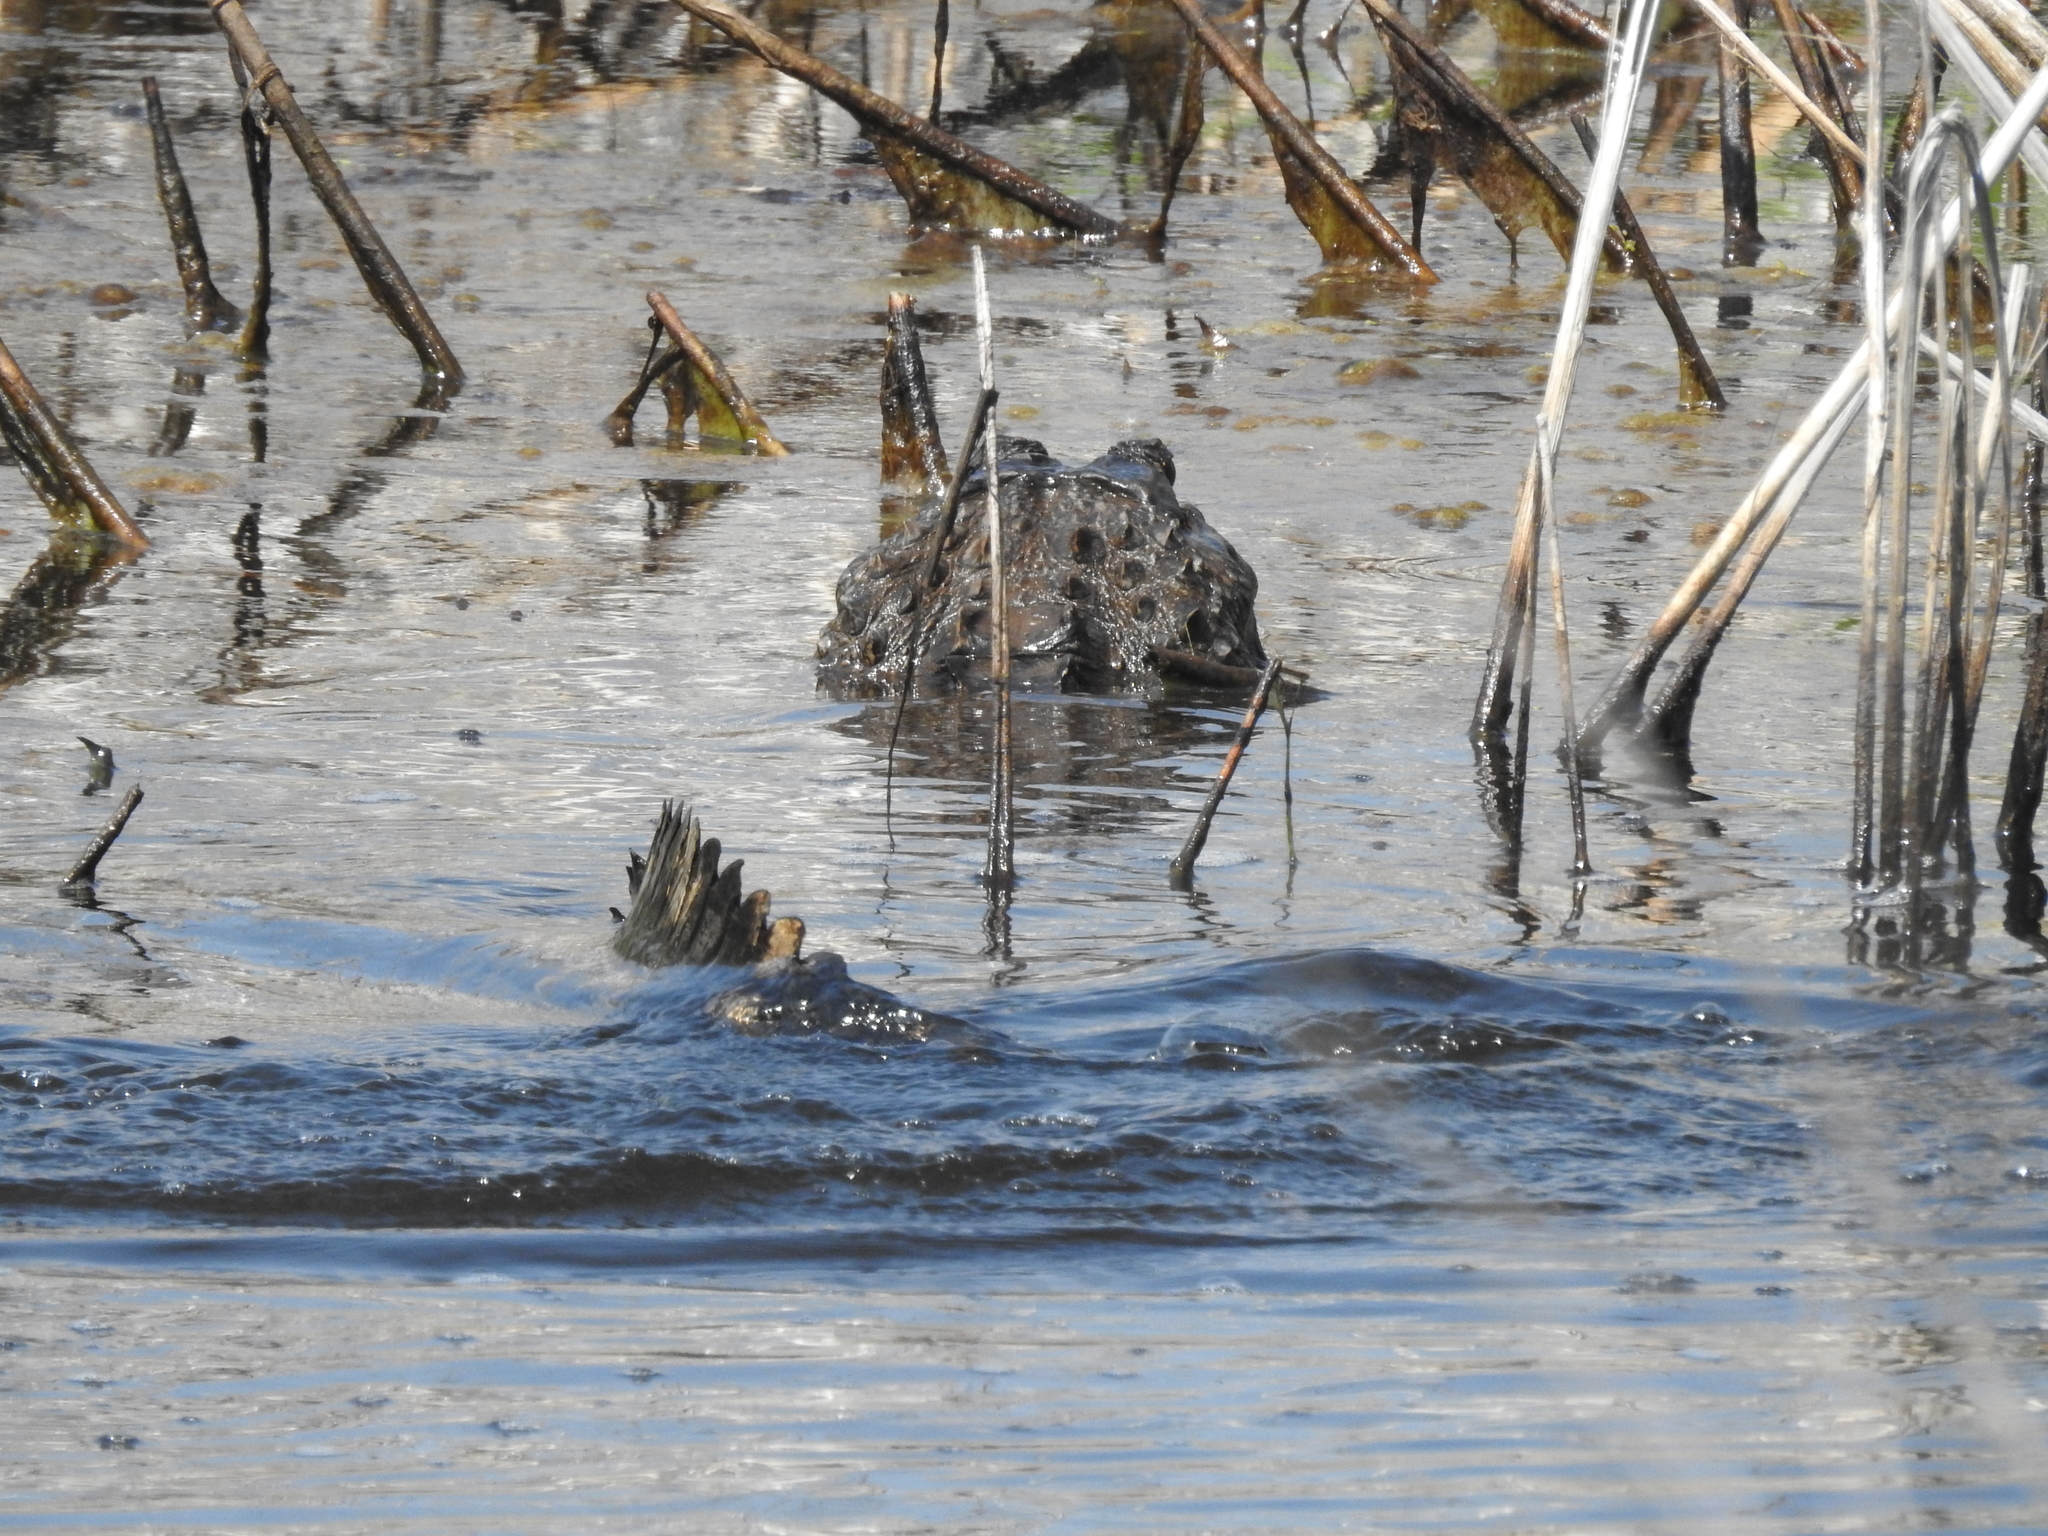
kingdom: Animalia
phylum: Chordata
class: Crocodylia
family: Alligatoridae
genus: Alligator
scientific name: Alligator mississippiensis
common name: American alligator
